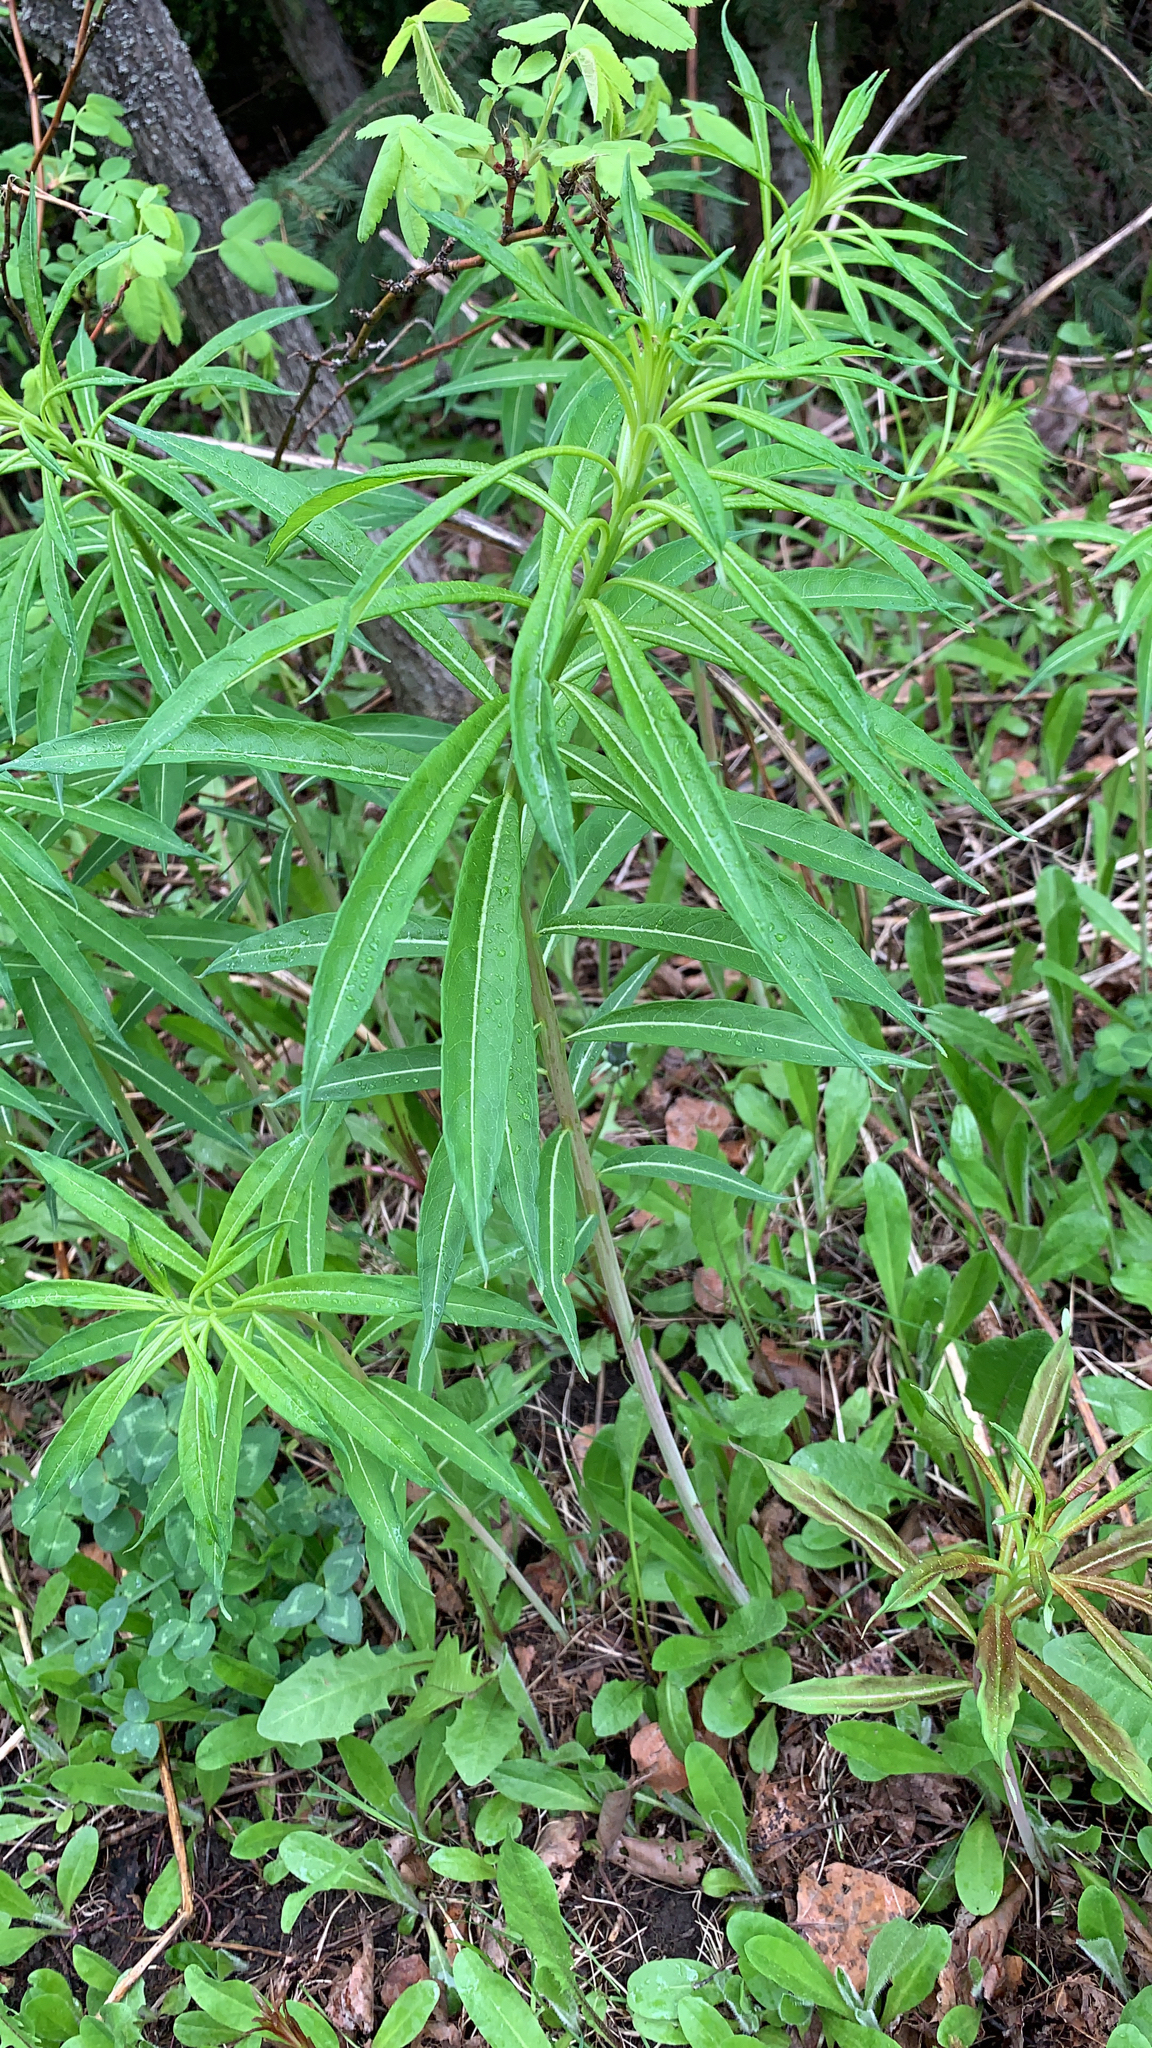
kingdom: Plantae
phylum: Tracheophyta
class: Magnoliopsida
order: Myrtales
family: Onagraceae
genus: Chamaenerion
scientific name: Chamaenerion angustifolium
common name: Fireweed
